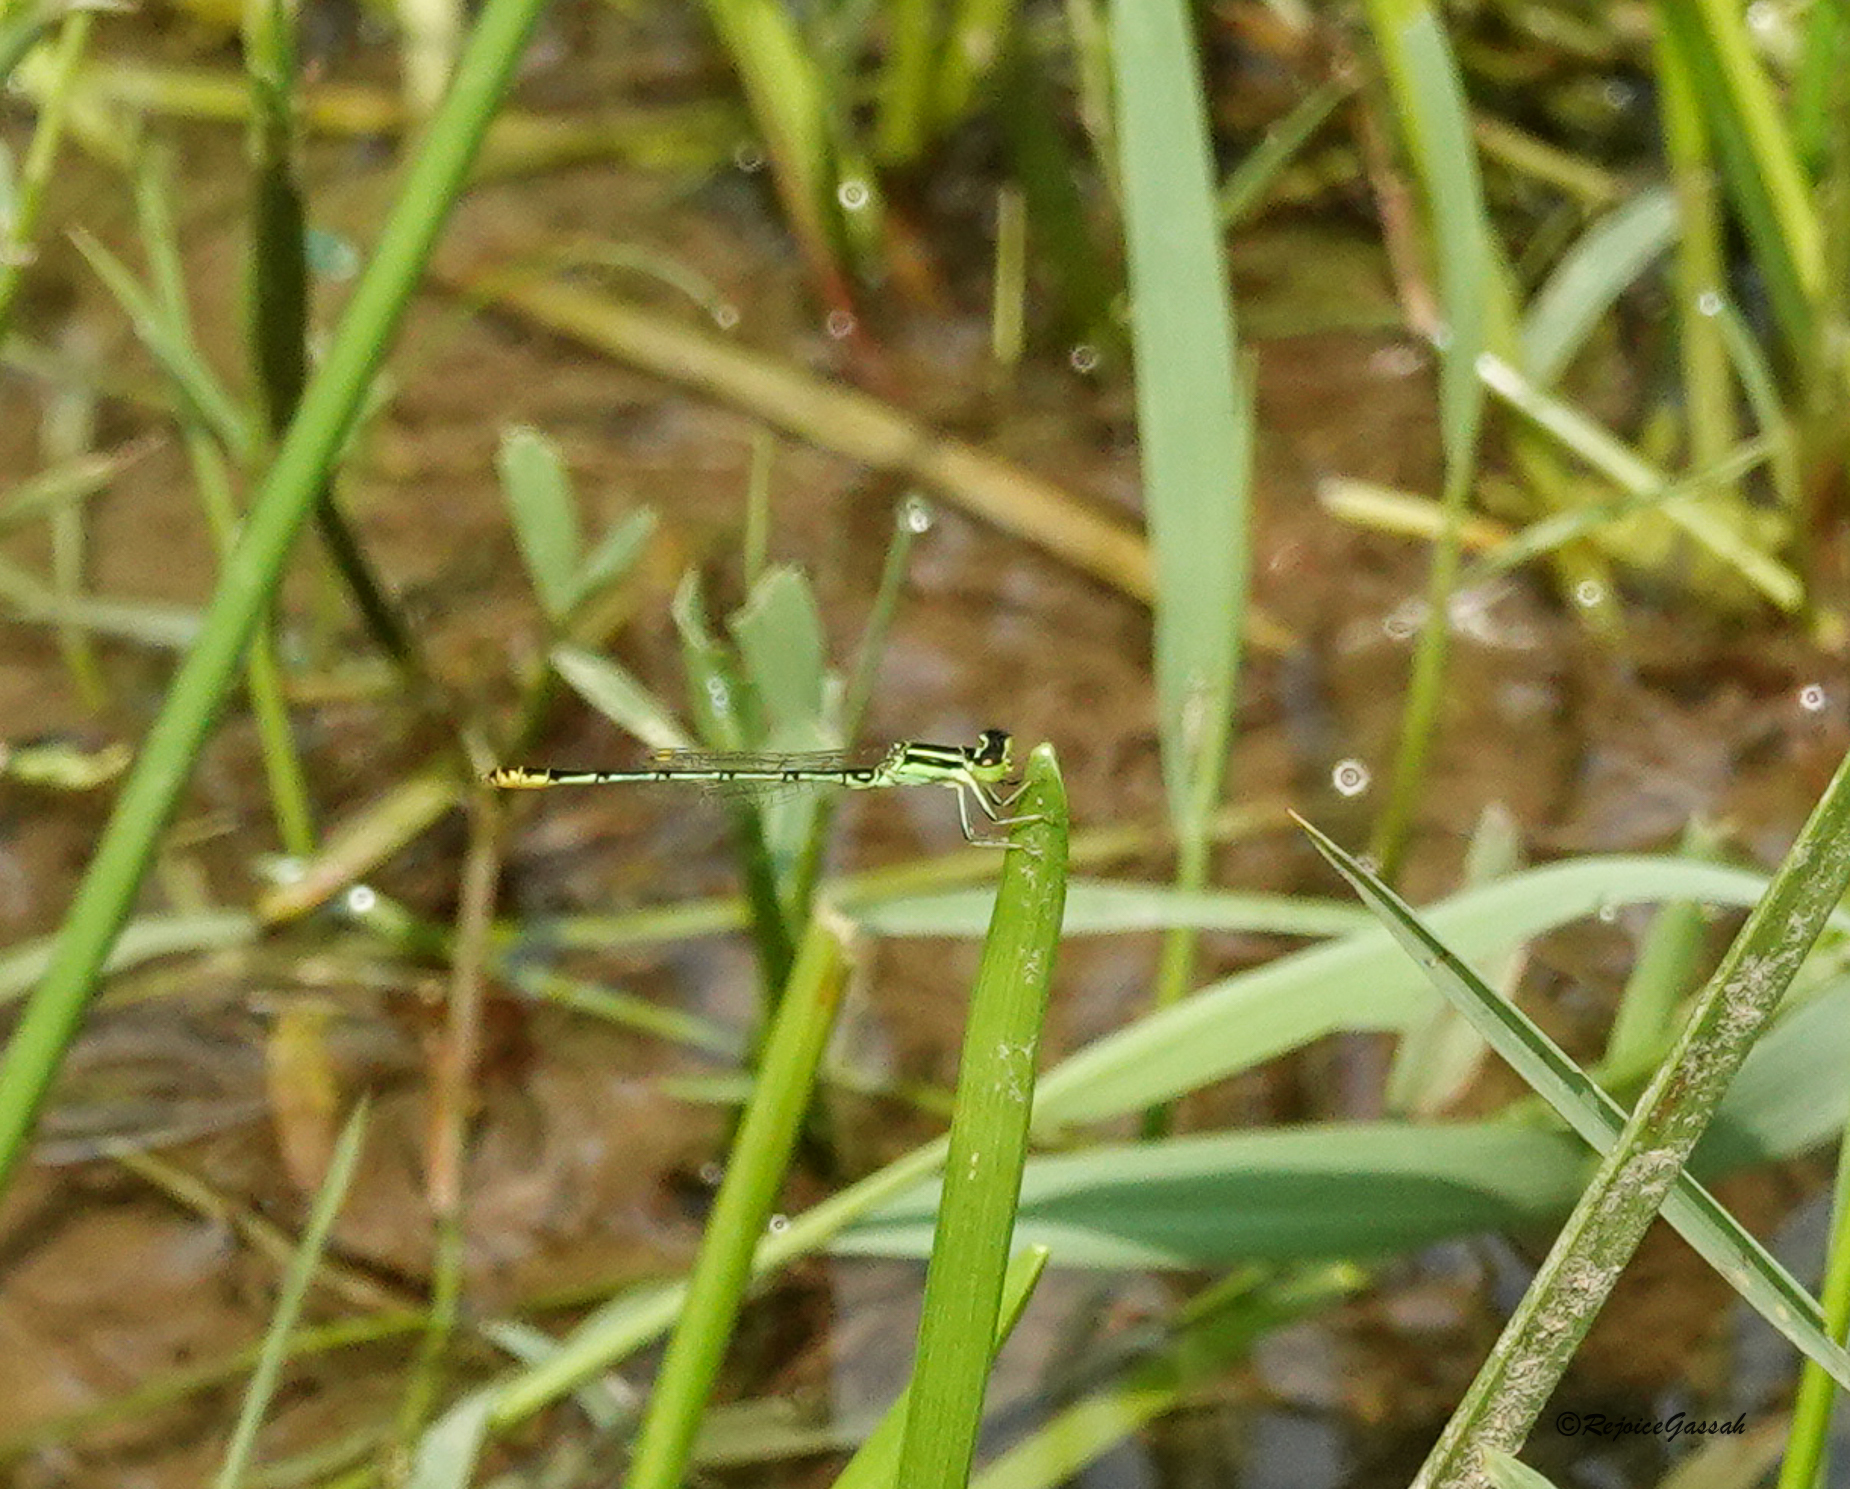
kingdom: Animalia
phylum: Arthropoda
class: Insecta
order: Odonata
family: Coenagrionidae
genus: Agriocnemis
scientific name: Agriocnemis kalinga
